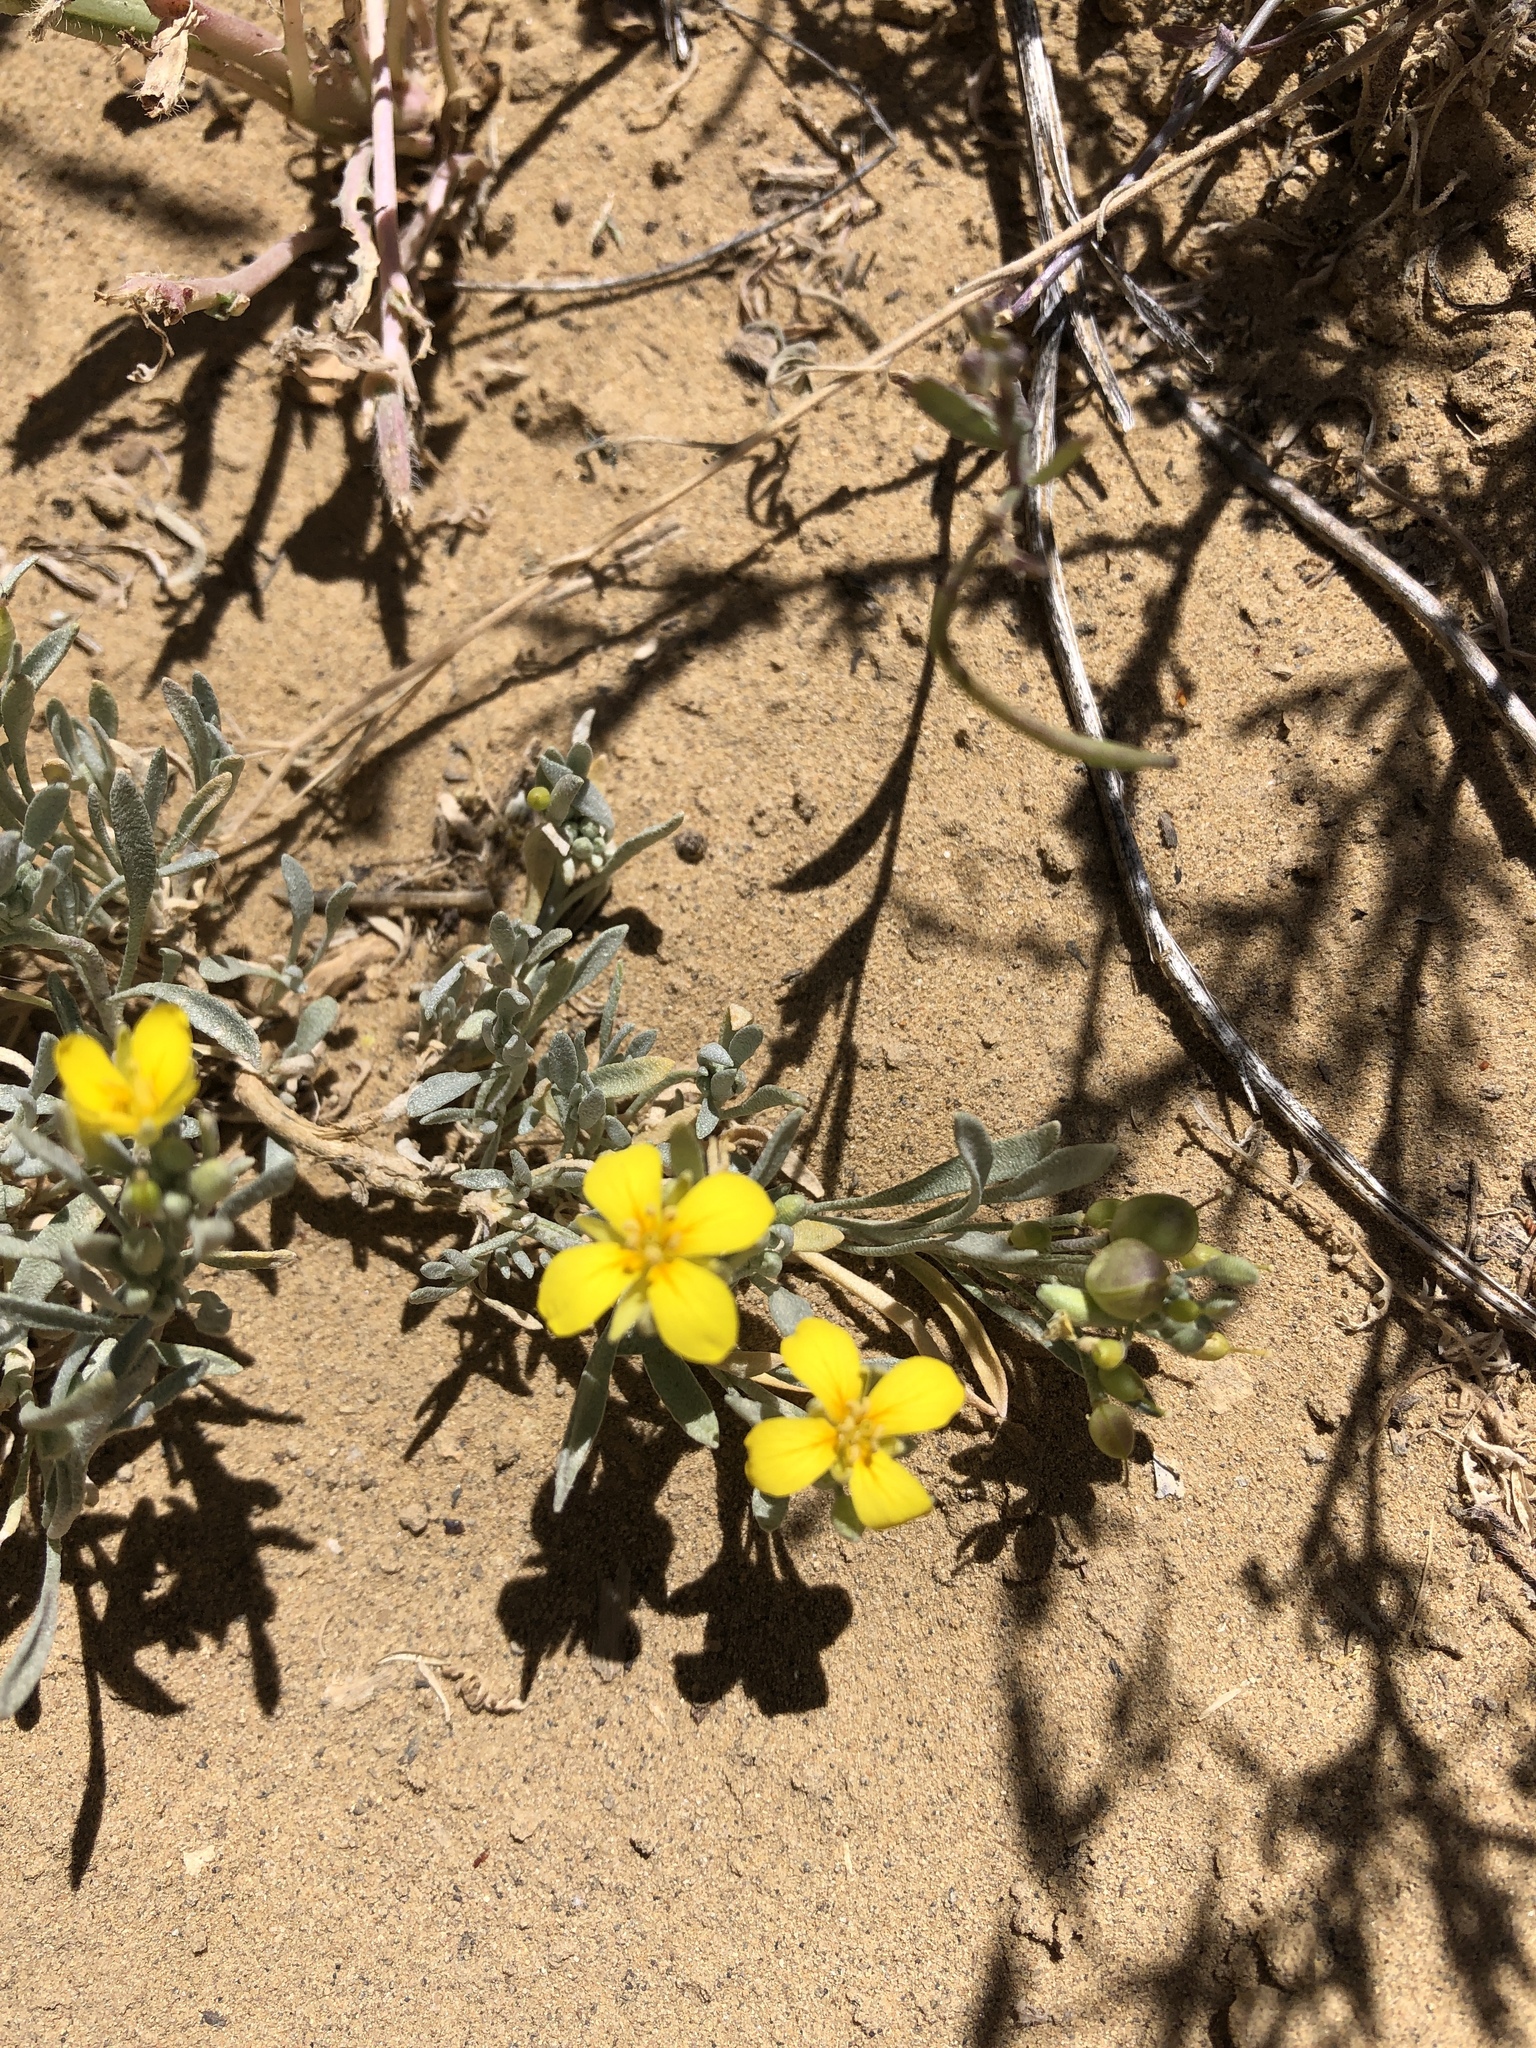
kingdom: Plantae
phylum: Tracheophyta
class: Magnoliopsida
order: Brassicales
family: Brassicaceae
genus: Physaria
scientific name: Physaria fendleri
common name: Fendler's bladderpod
